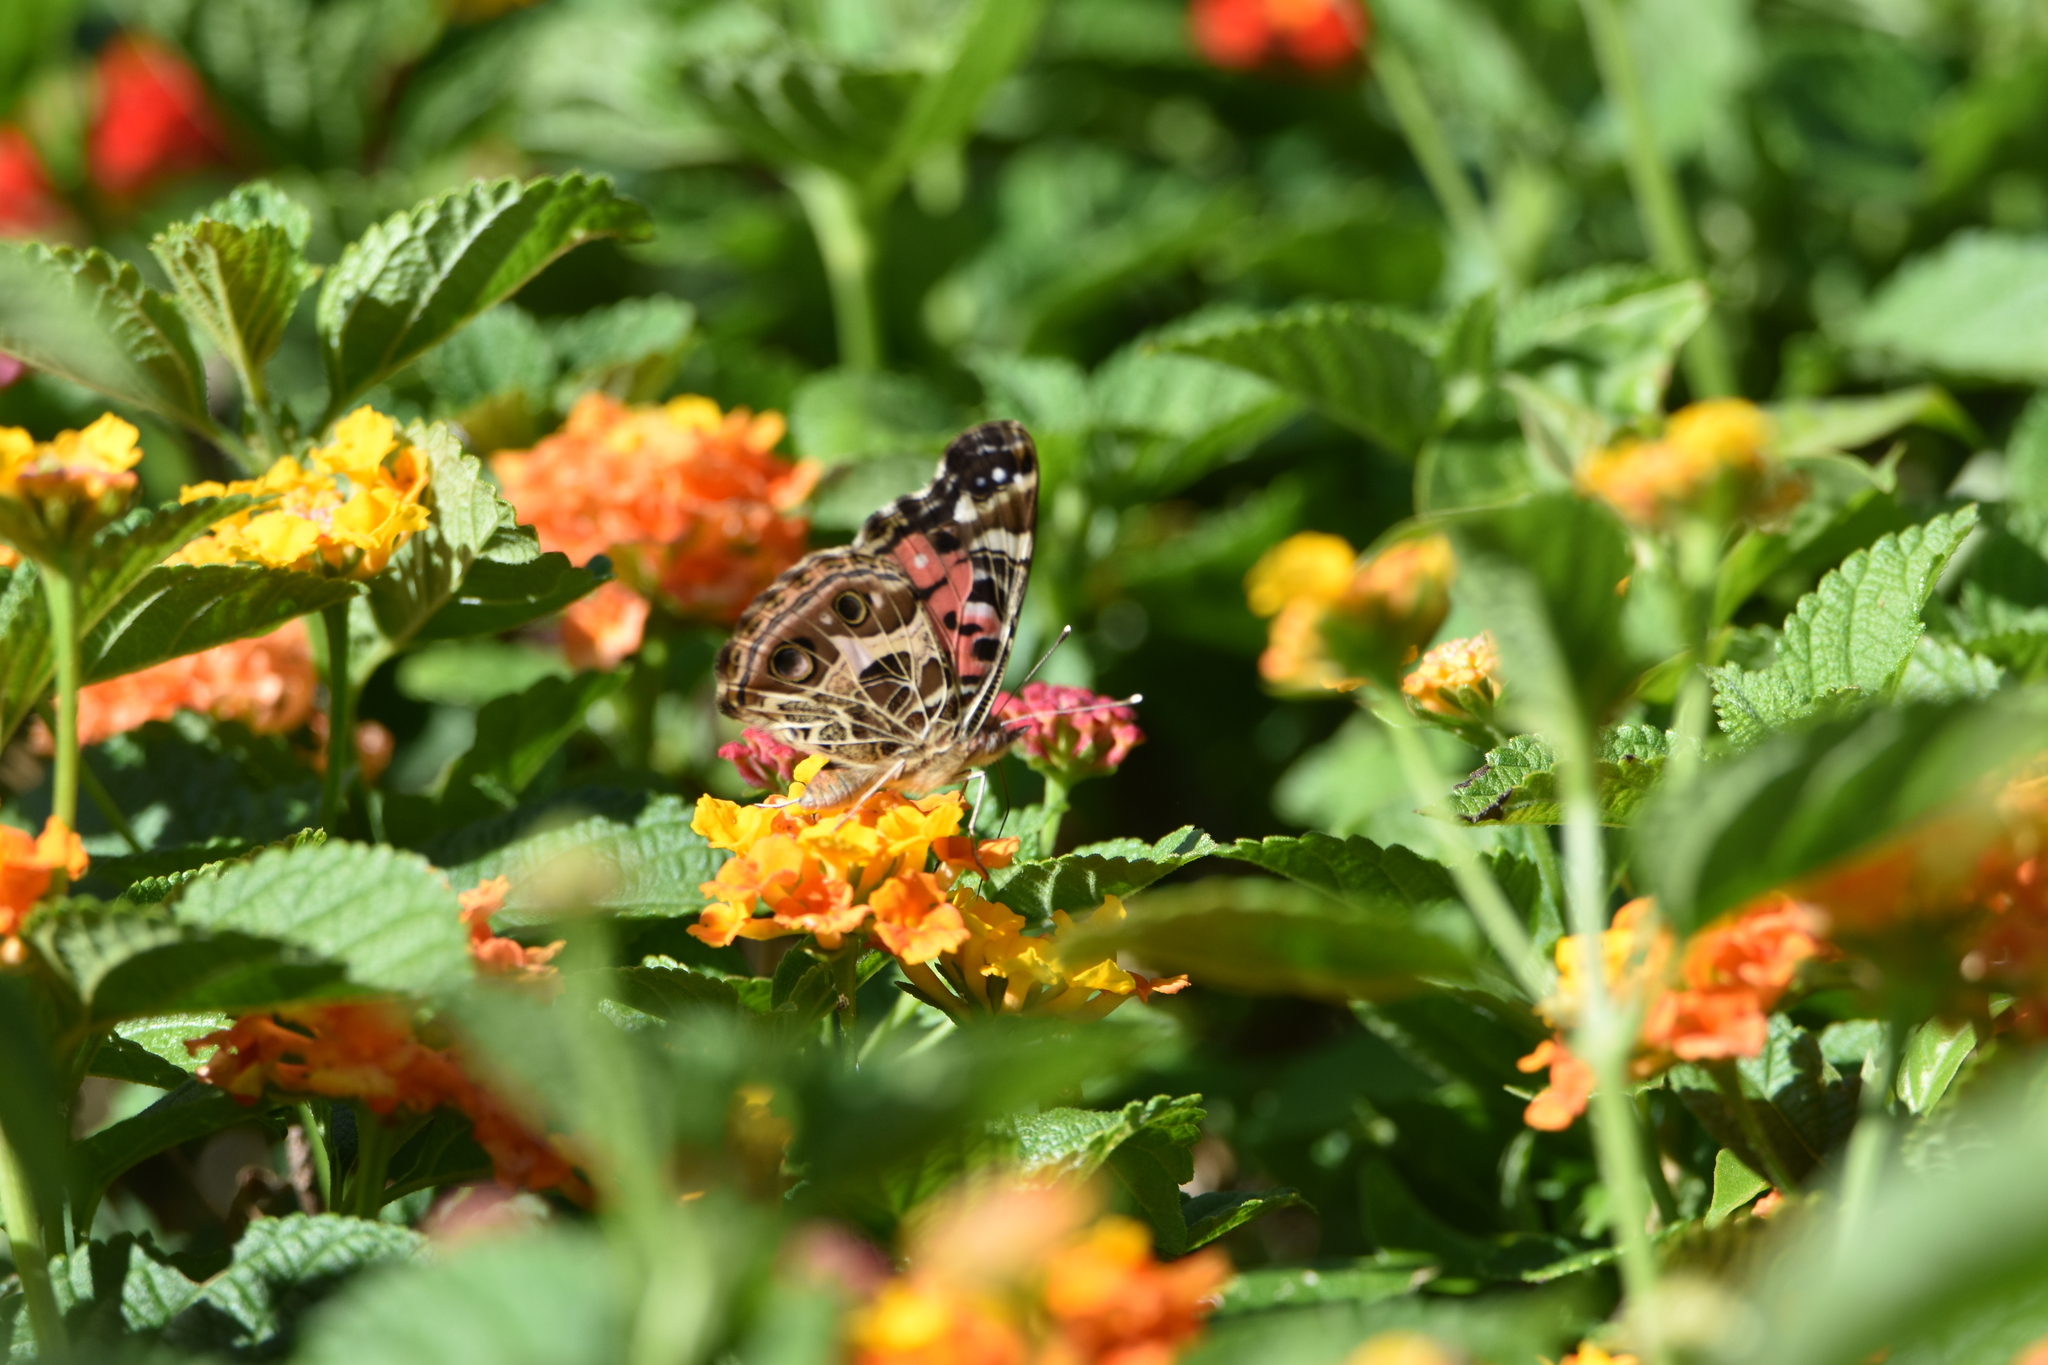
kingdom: Animalia
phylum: Arthropoda
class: Insecta
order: Lepidoptera
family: Nymphalidae
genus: Vanessa
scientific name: Vanessa braziliensis
